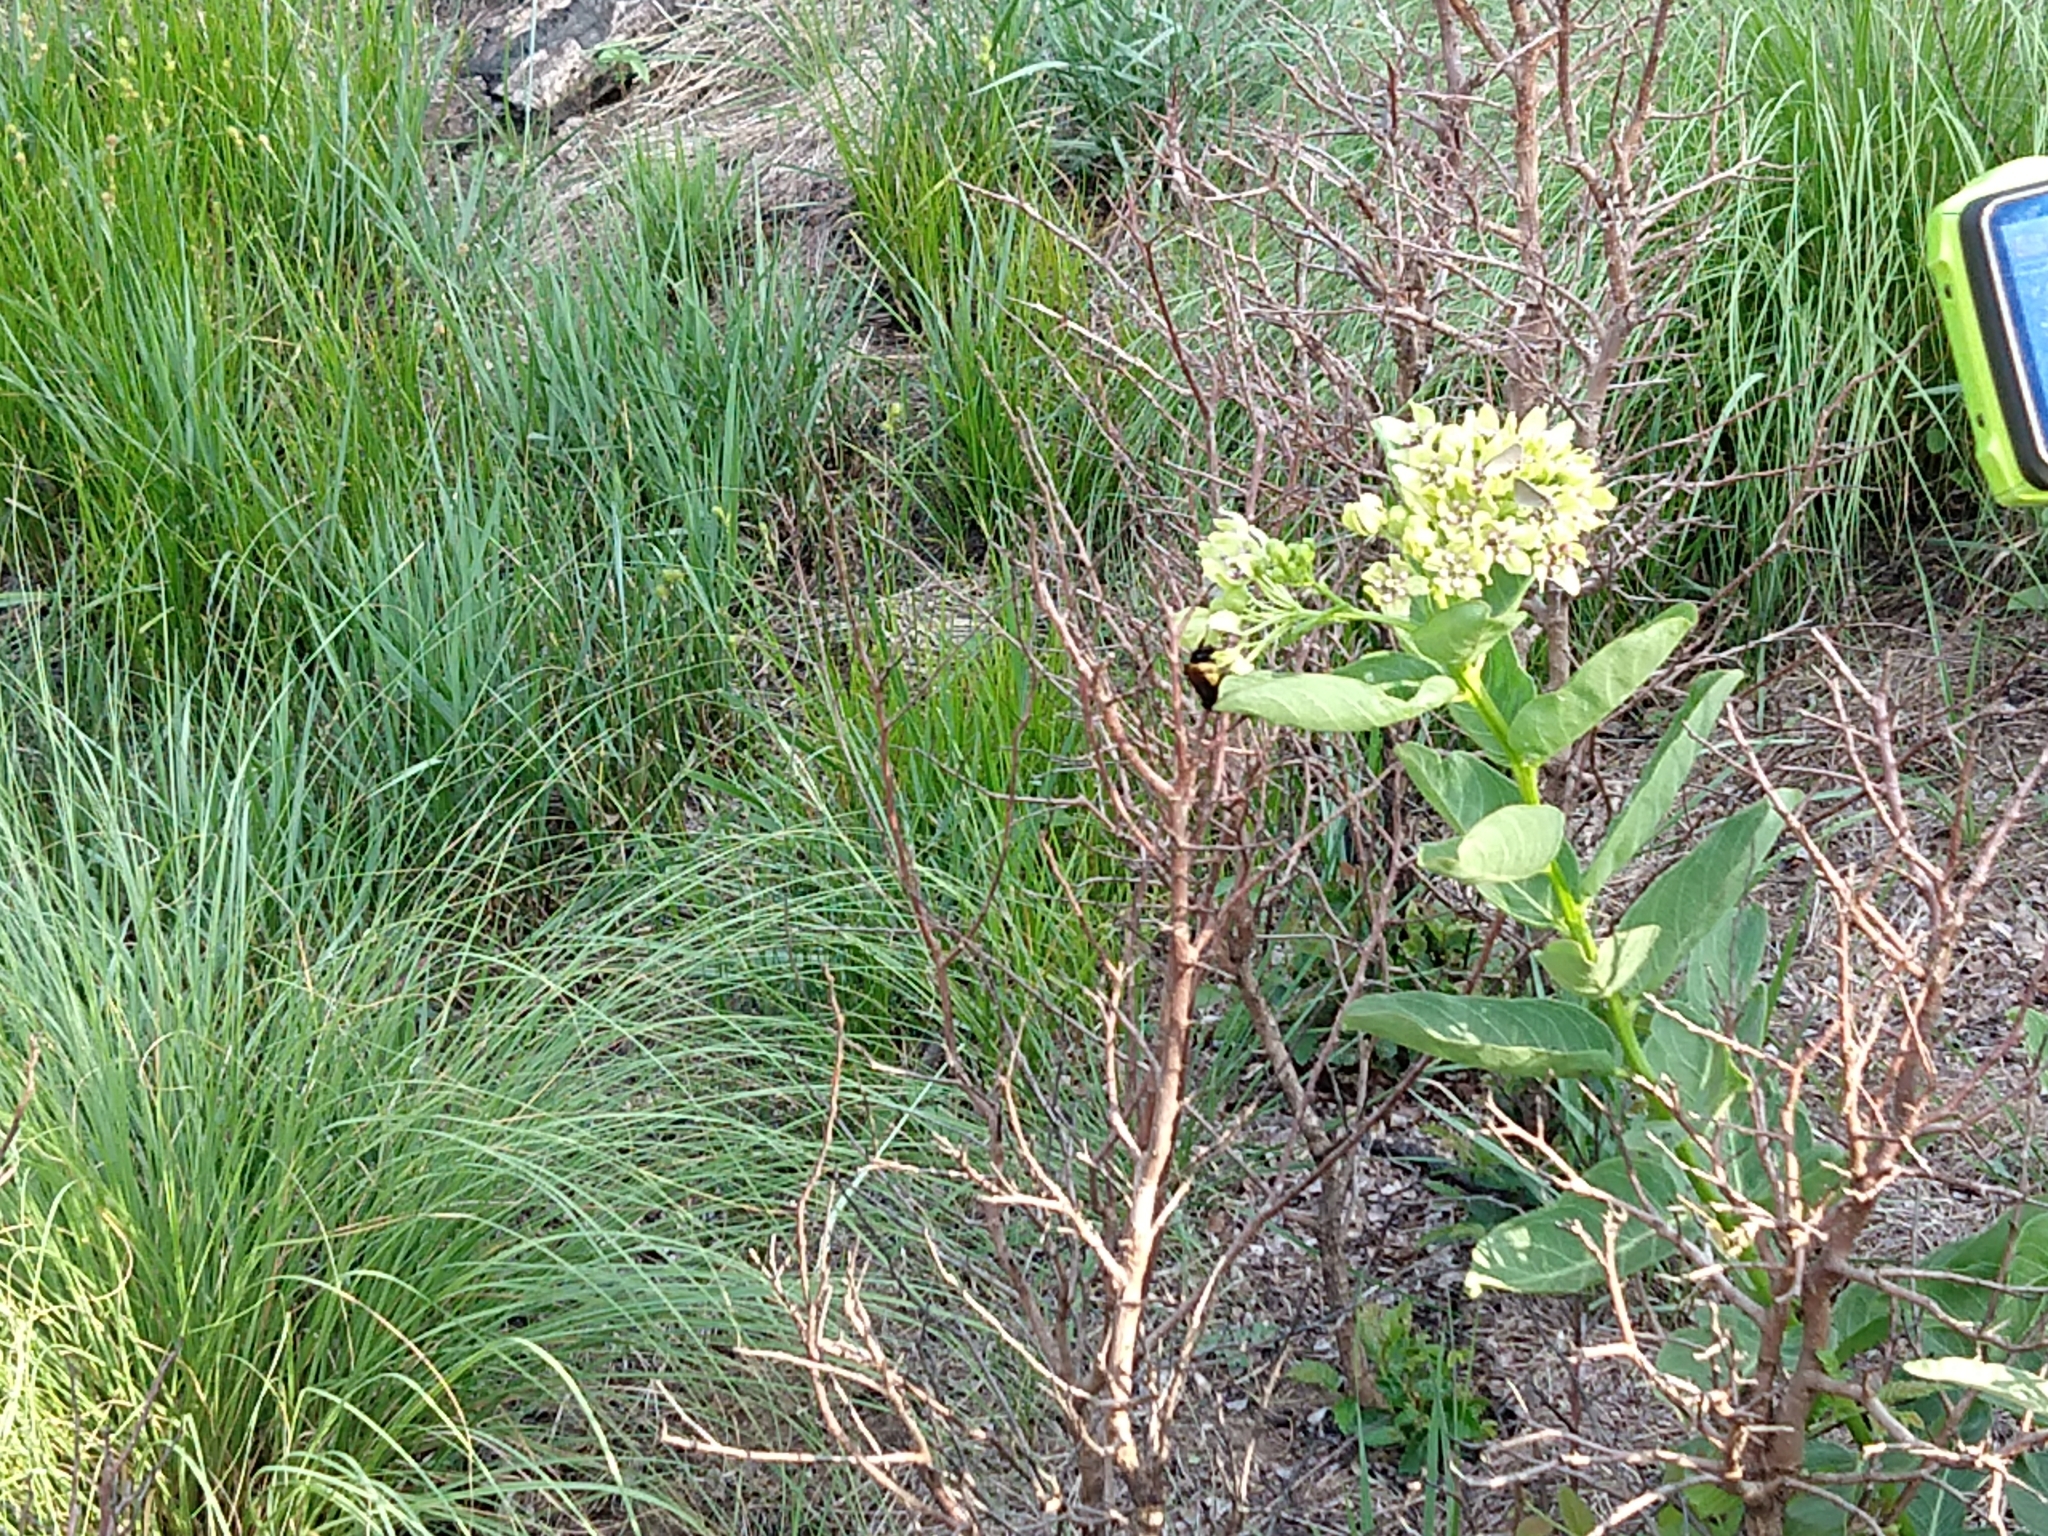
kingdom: Plantae
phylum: Tracheophyta
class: Magnoliopsida
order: Gentianales
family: Apocynaceae
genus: Asclepias
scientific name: Asclepias viridis
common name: Antelope-horns
